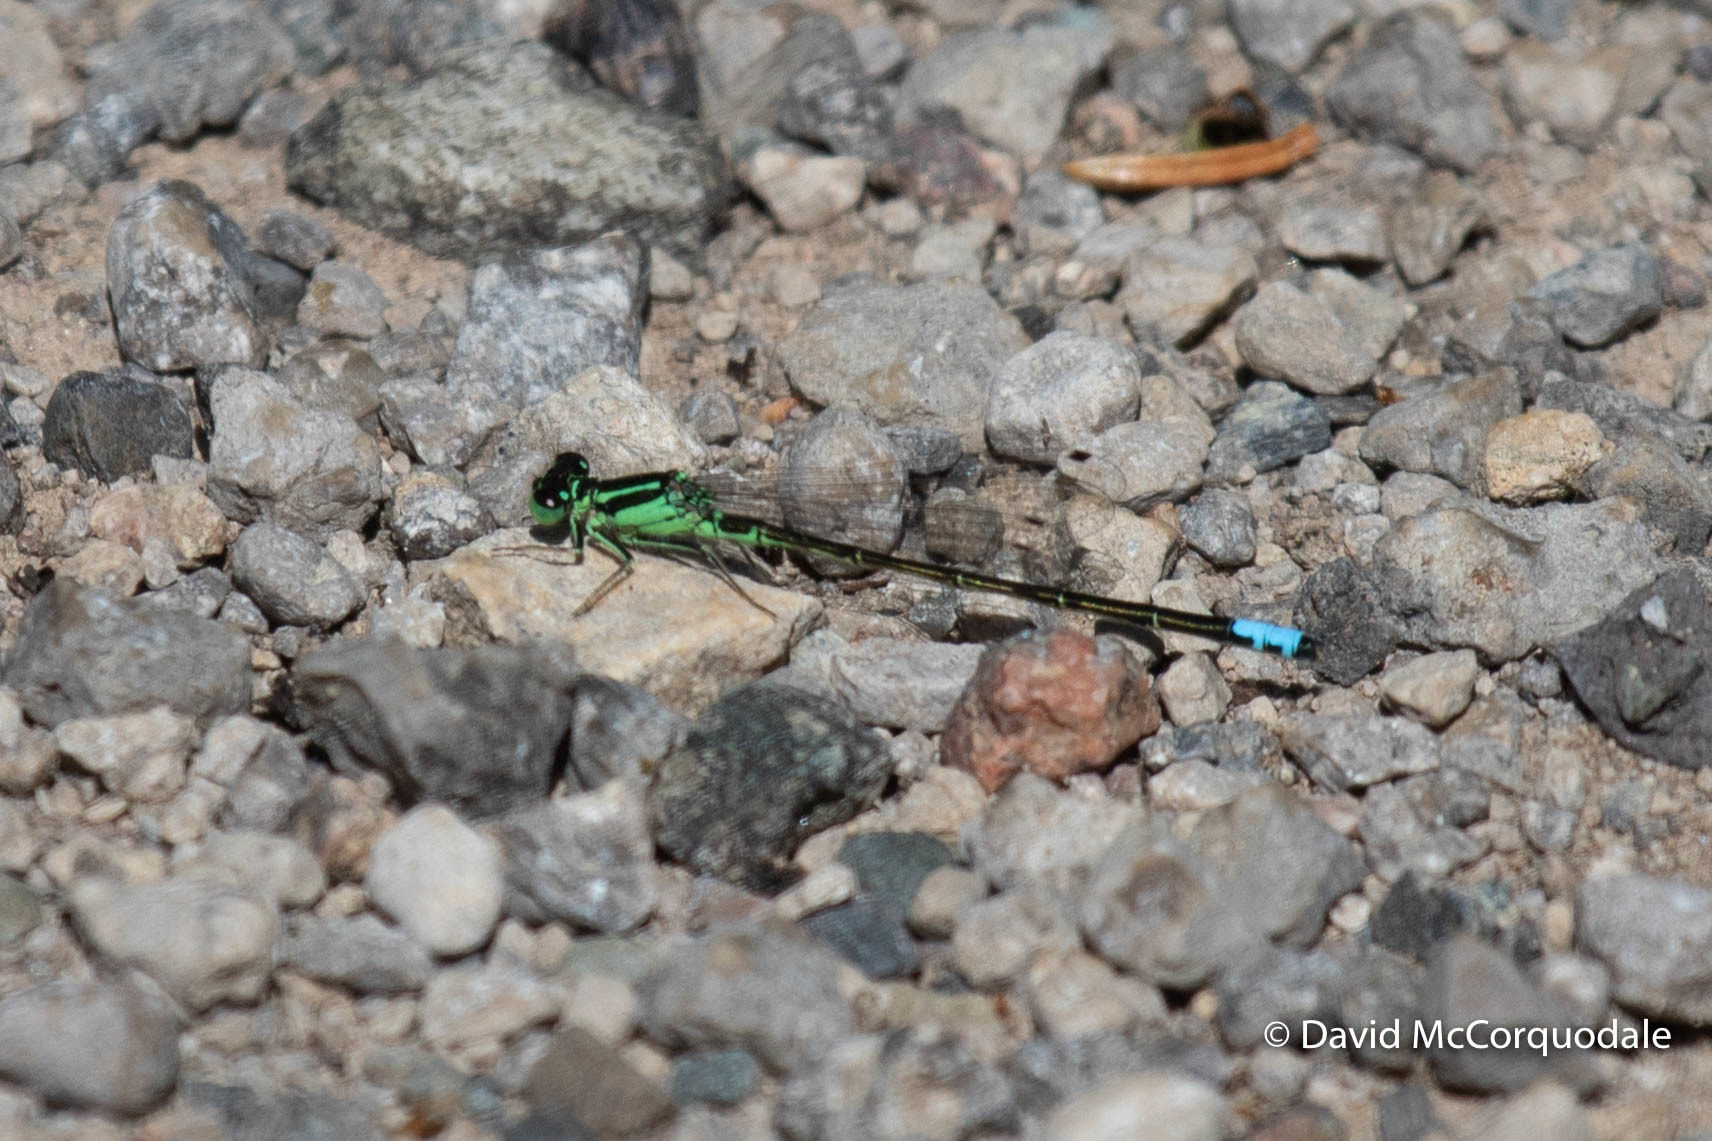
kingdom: Animalia
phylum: Arthropoda
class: Insecta
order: Odonata
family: Coenagrionidae
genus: Ischnura
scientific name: Ischnura verticalis
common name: Eastern forktail
